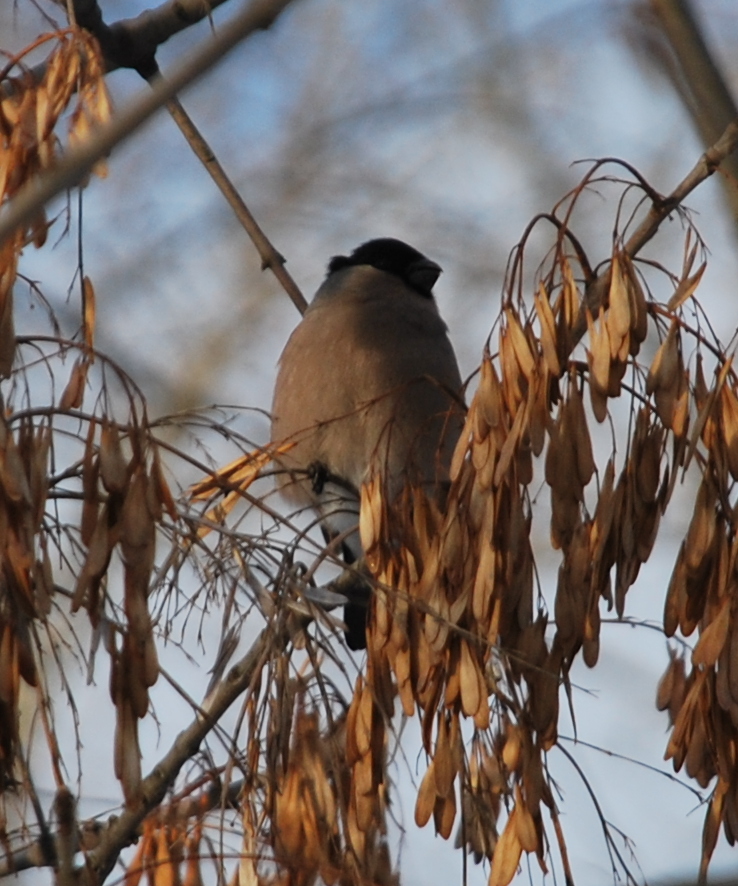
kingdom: Animalia
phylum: Chordata
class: Aves
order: Passeriformes
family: Fringillidae
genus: Pyrrhula
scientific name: Pyrrhula pyrrhula
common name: Eurasian bullfinch
